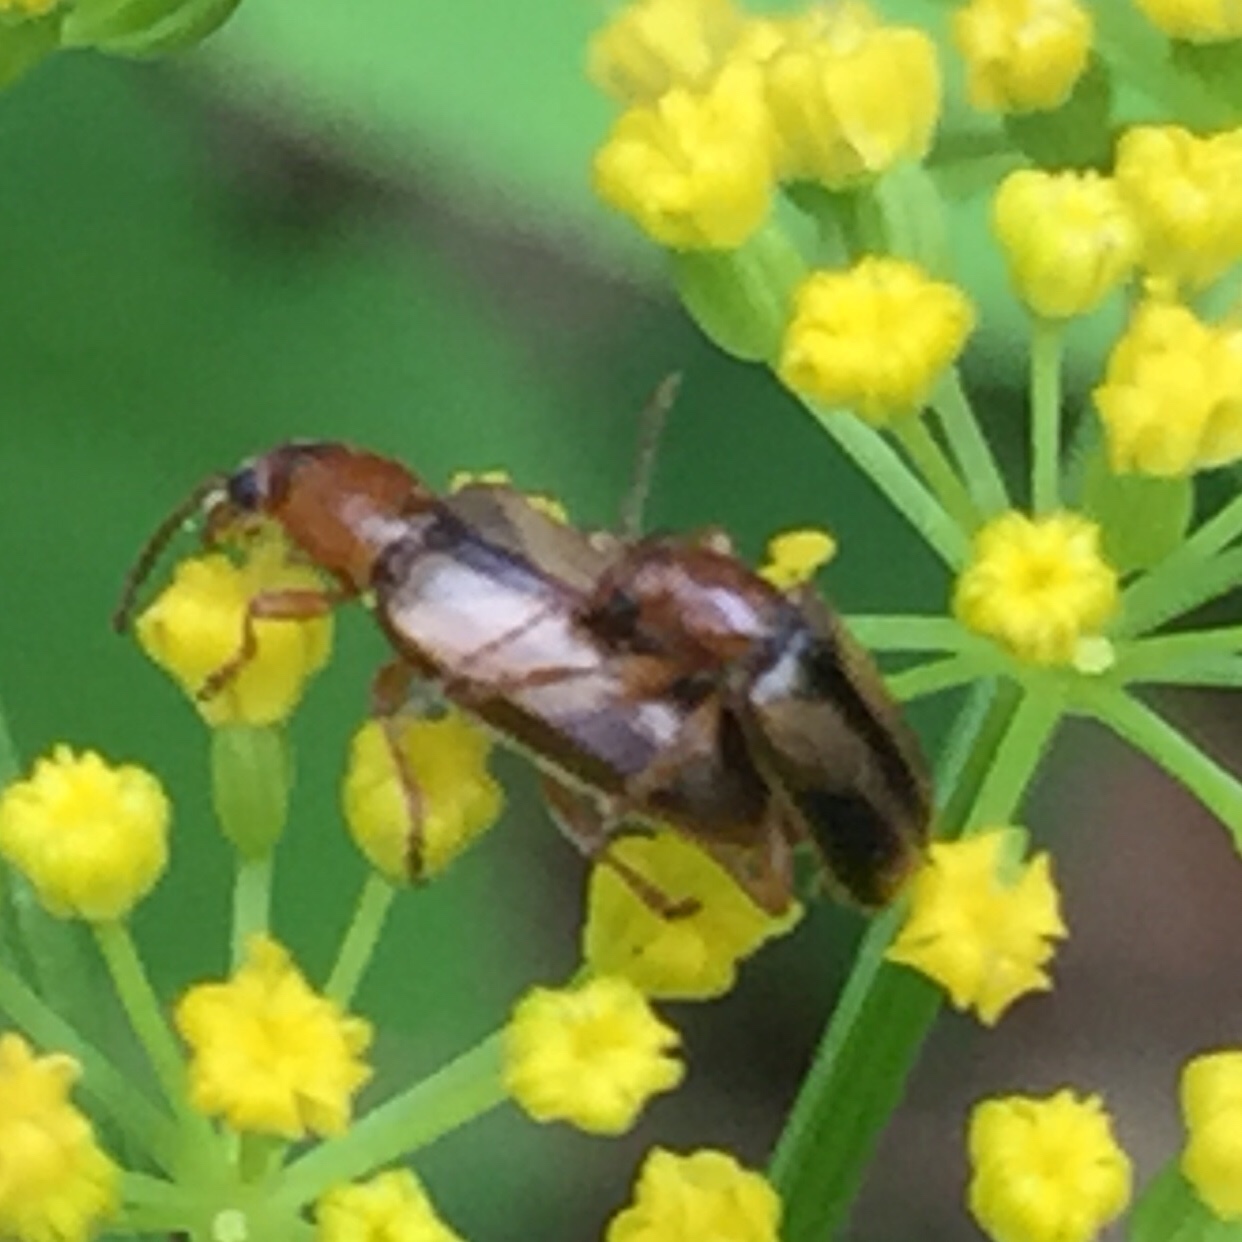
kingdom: Animalia
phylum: Arthropoda
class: Insecta
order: Coleoptera
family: Orsodacnidae
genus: Orsodacne
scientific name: Orsodacne atra
